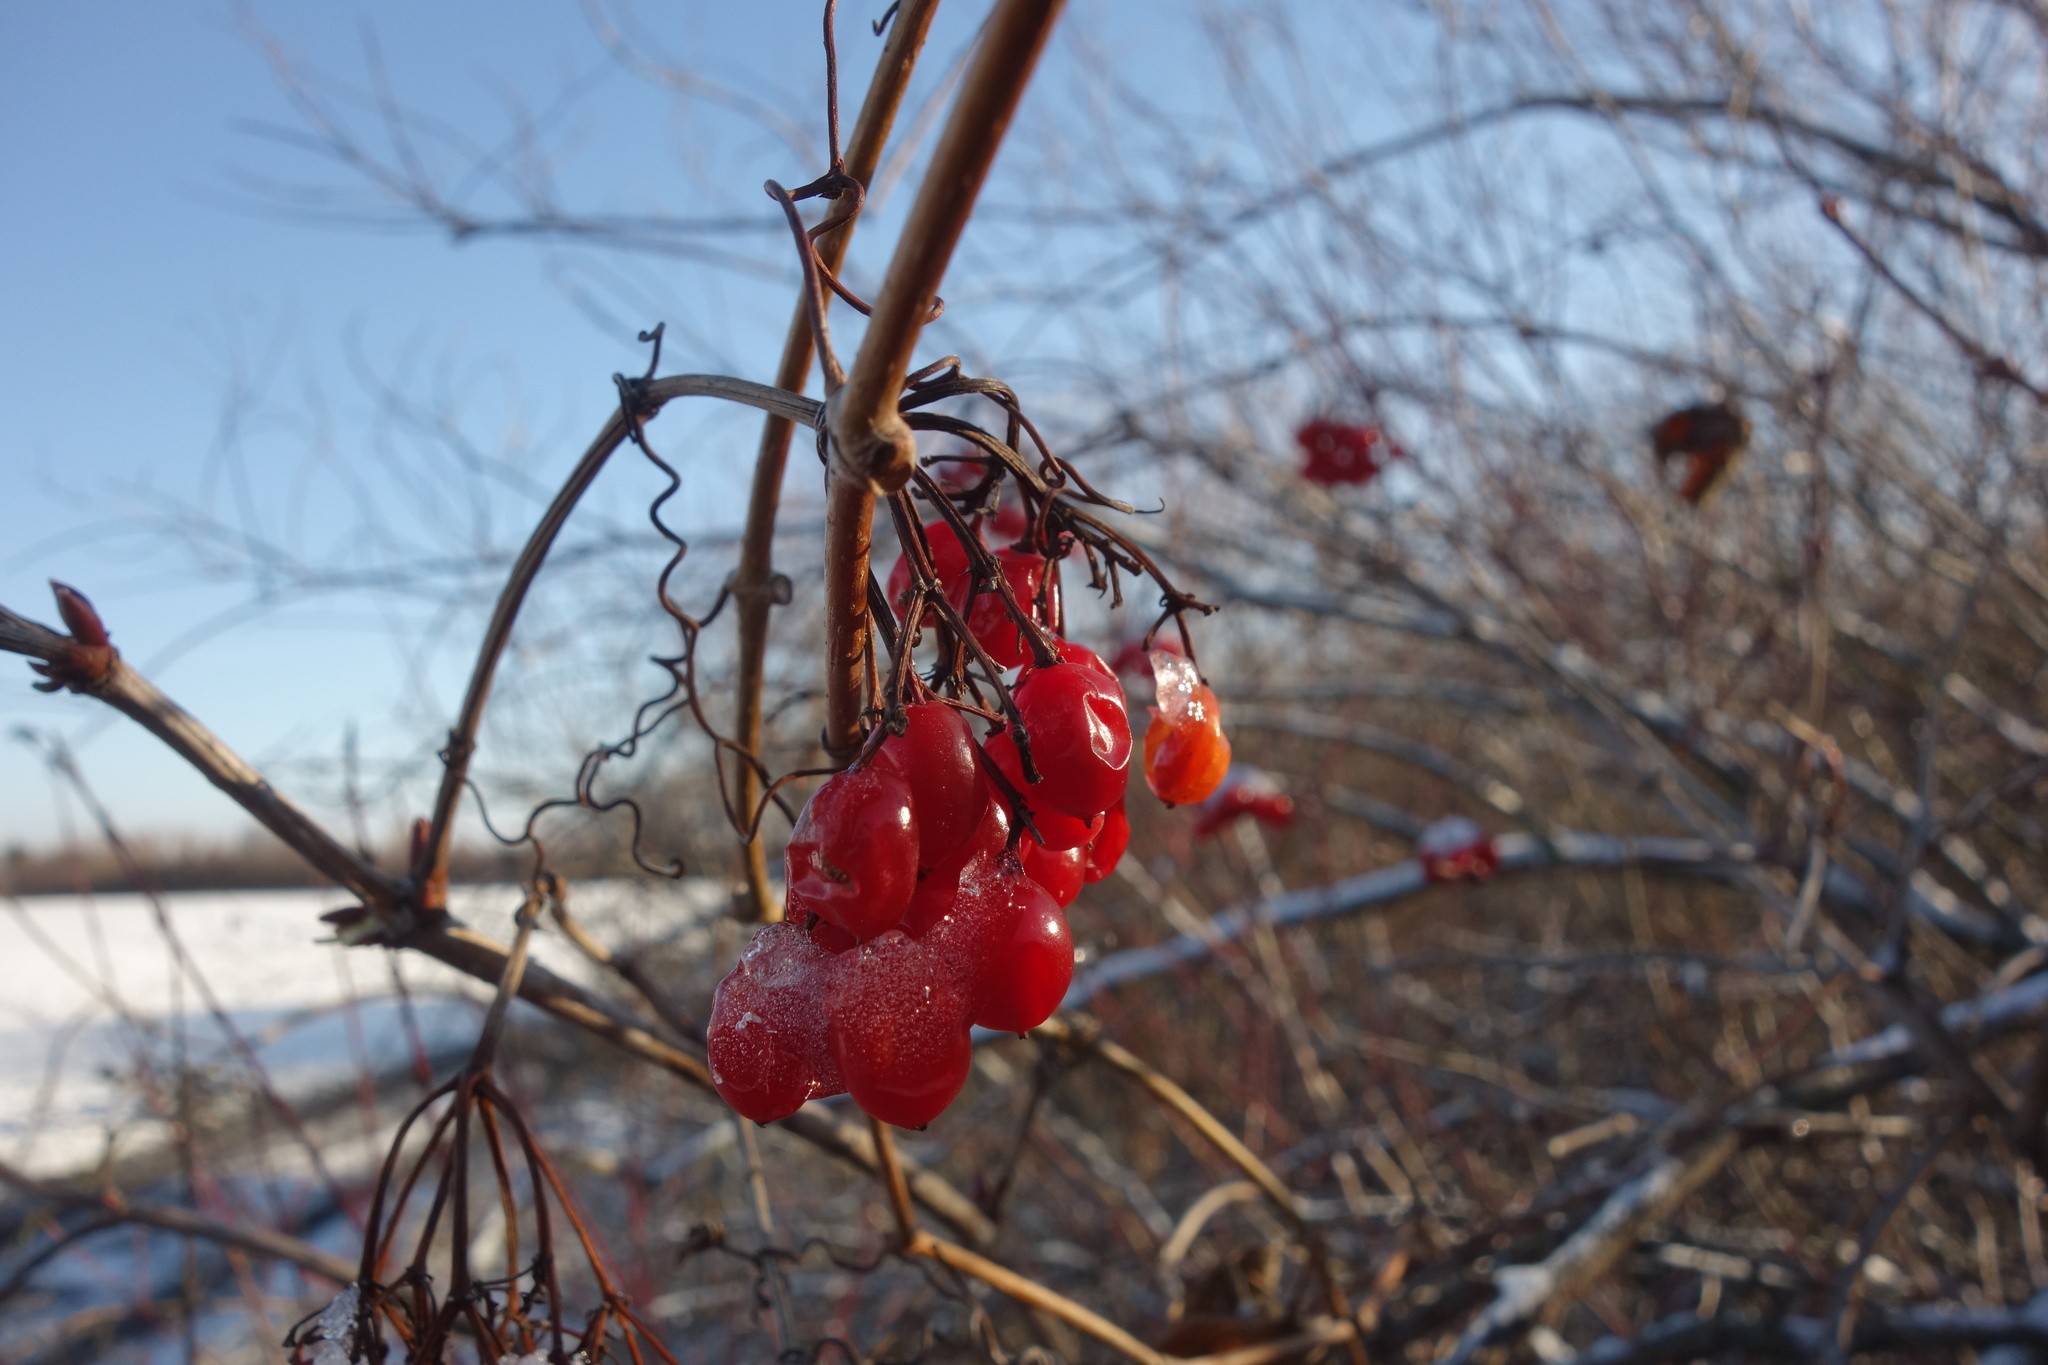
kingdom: Plantae
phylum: Tracheophyta
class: Magnoliopsida
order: Dipsacales
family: Viburnaceae
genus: Viburnum
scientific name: Viburnum opulus
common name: Guelder-rose
